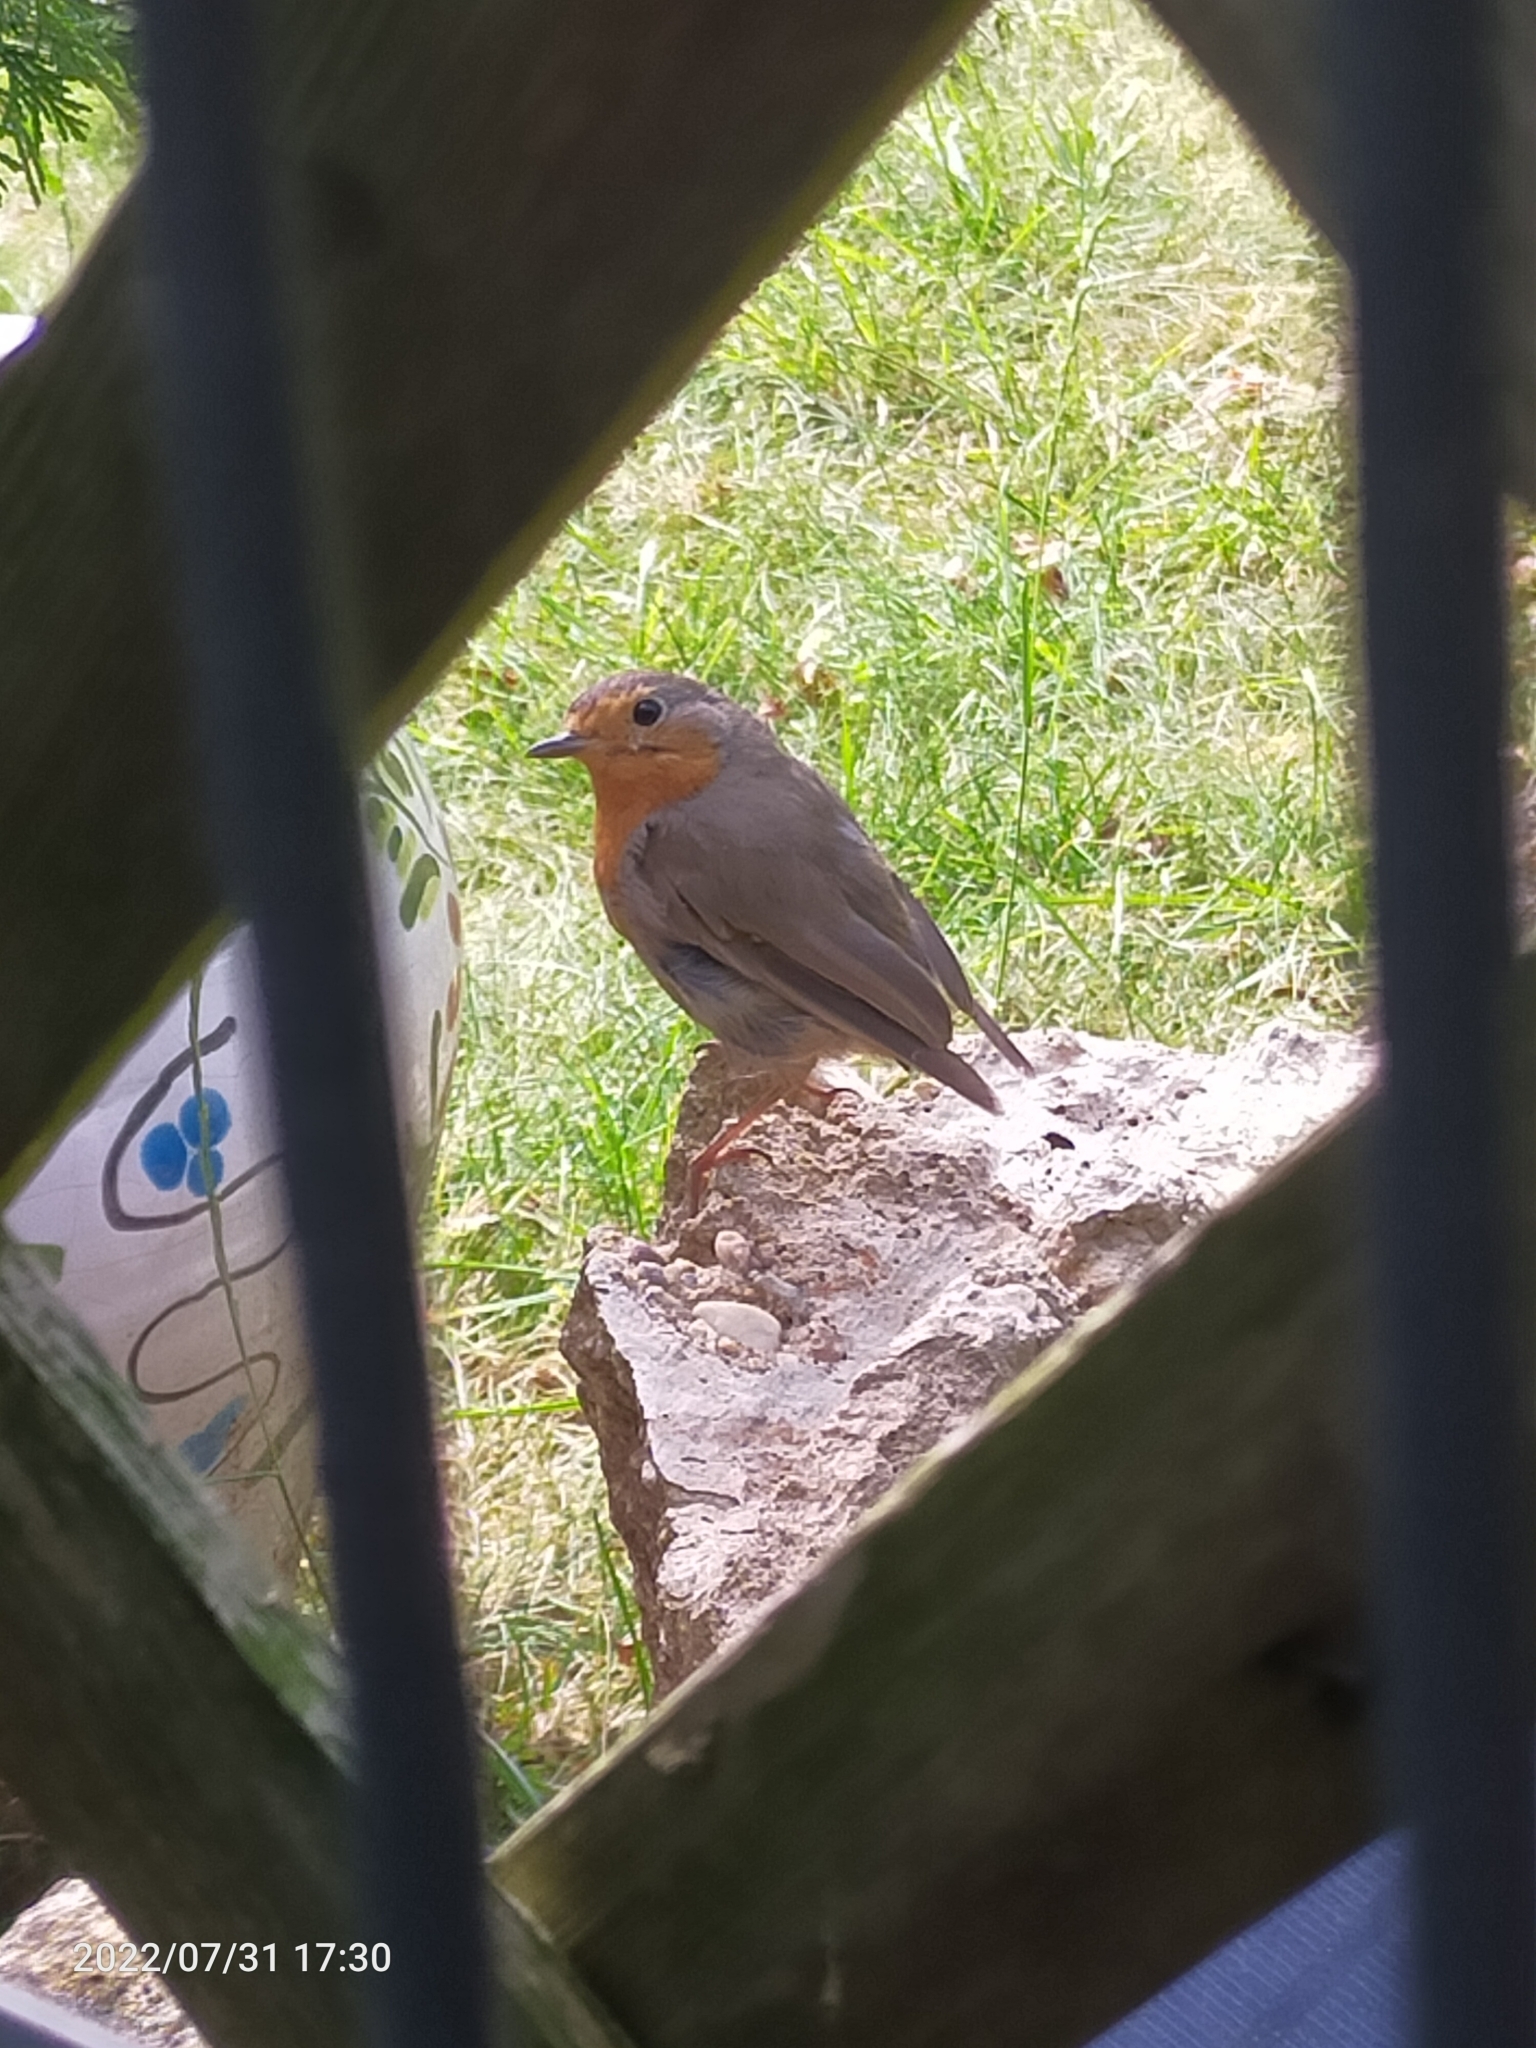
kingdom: Animalia
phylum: Chordata
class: Aves
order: Passeriformes
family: Muscicapidae
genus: Erithacus
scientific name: Erithacus rubecula
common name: European robin
